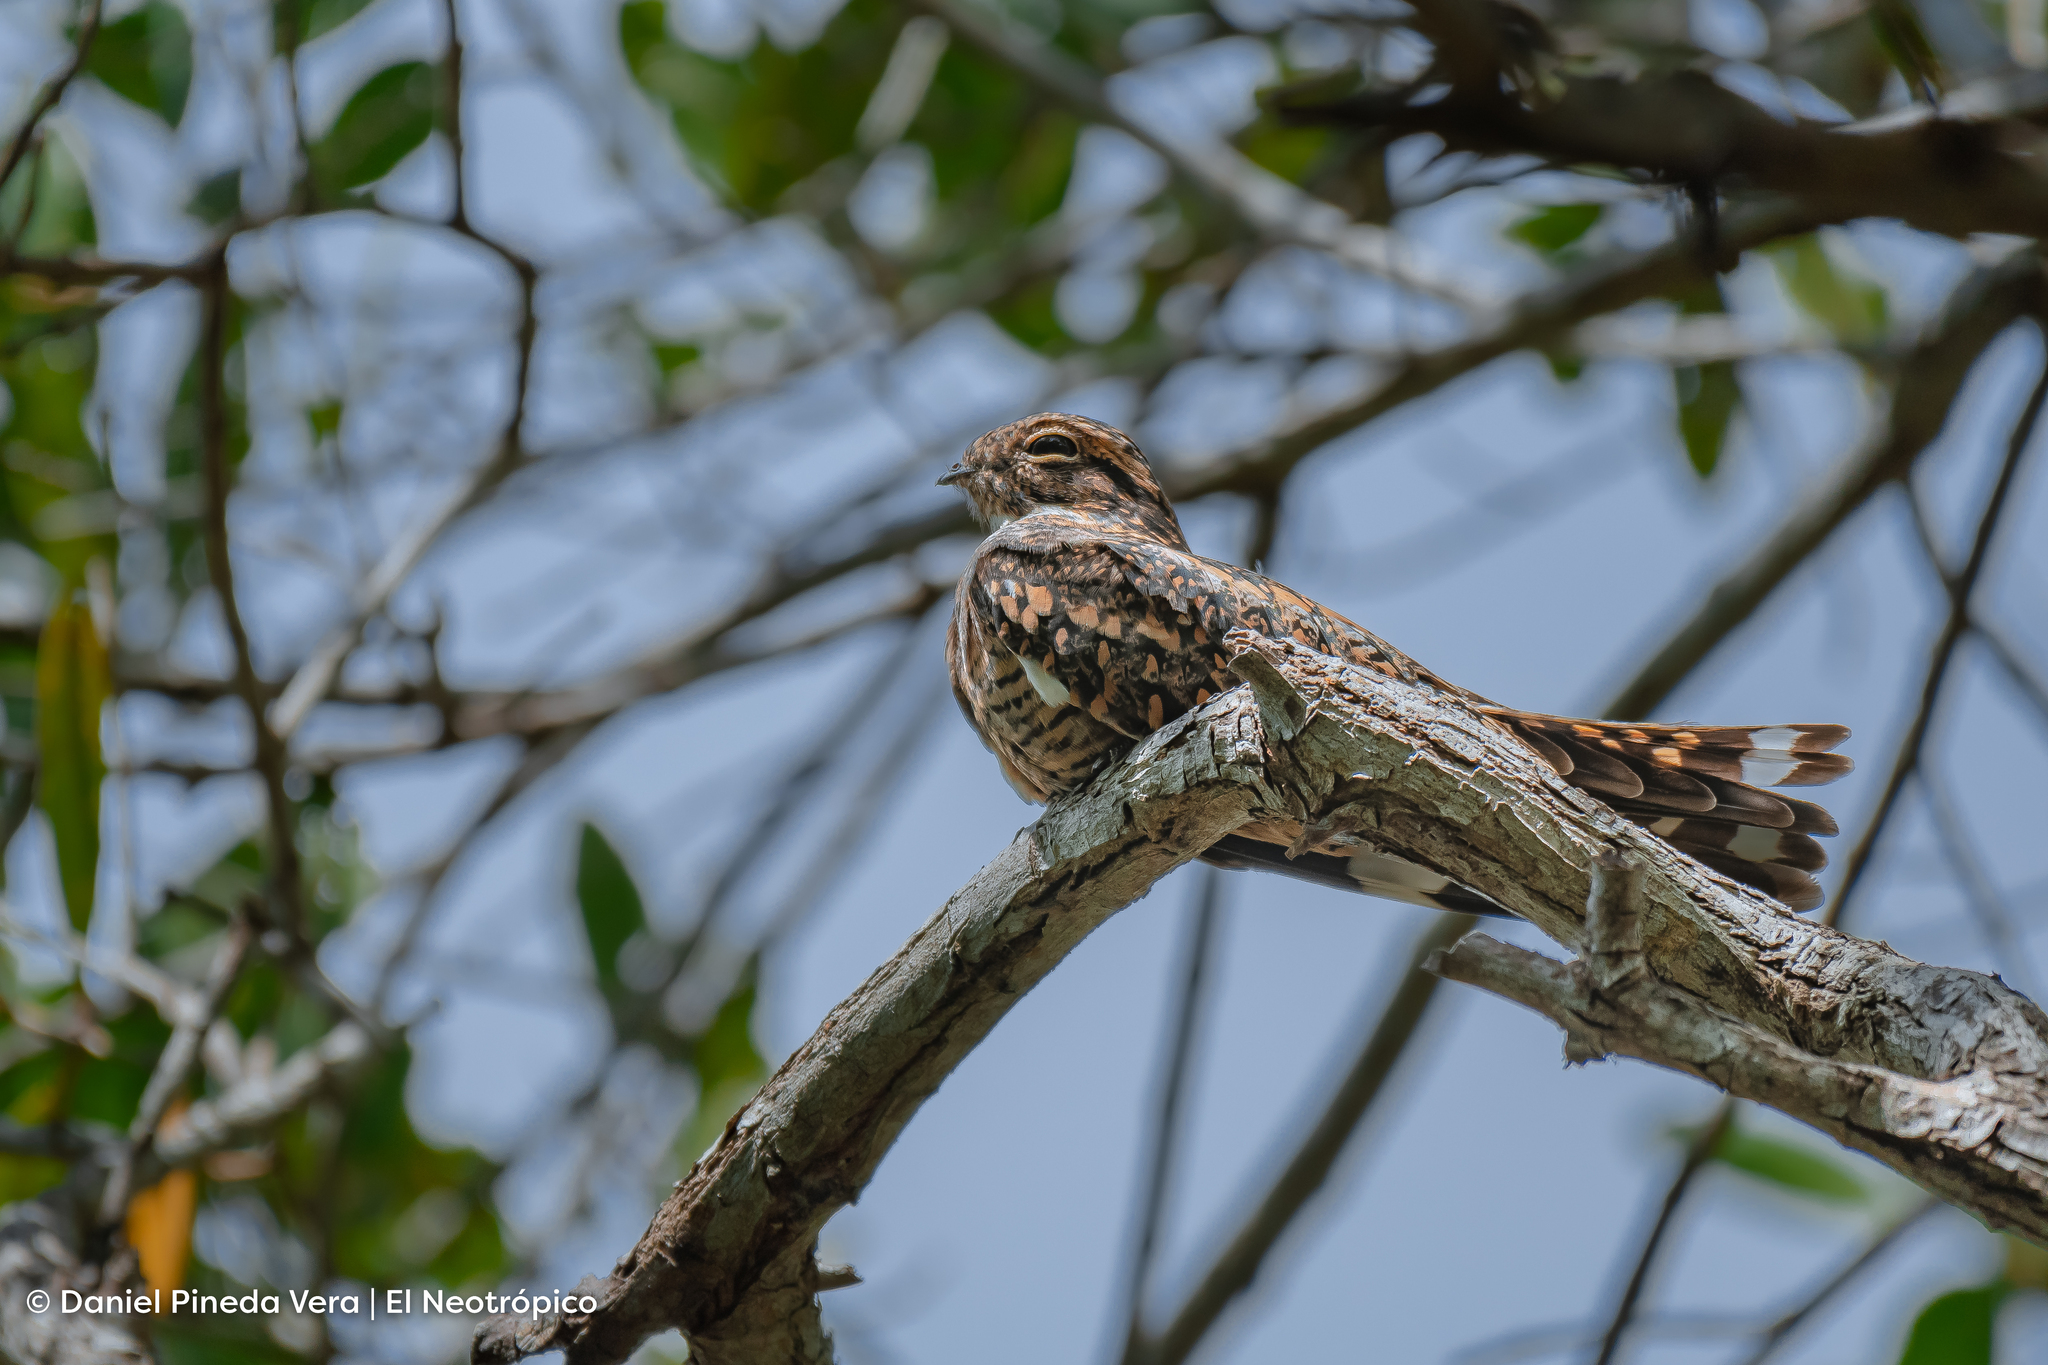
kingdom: Animalia
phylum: Chordata
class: Aves
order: Caprimulgiformes
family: Caprimulgidae
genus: Chordeiles
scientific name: Chordeiles acutipennis
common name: Lesser nighthawk
